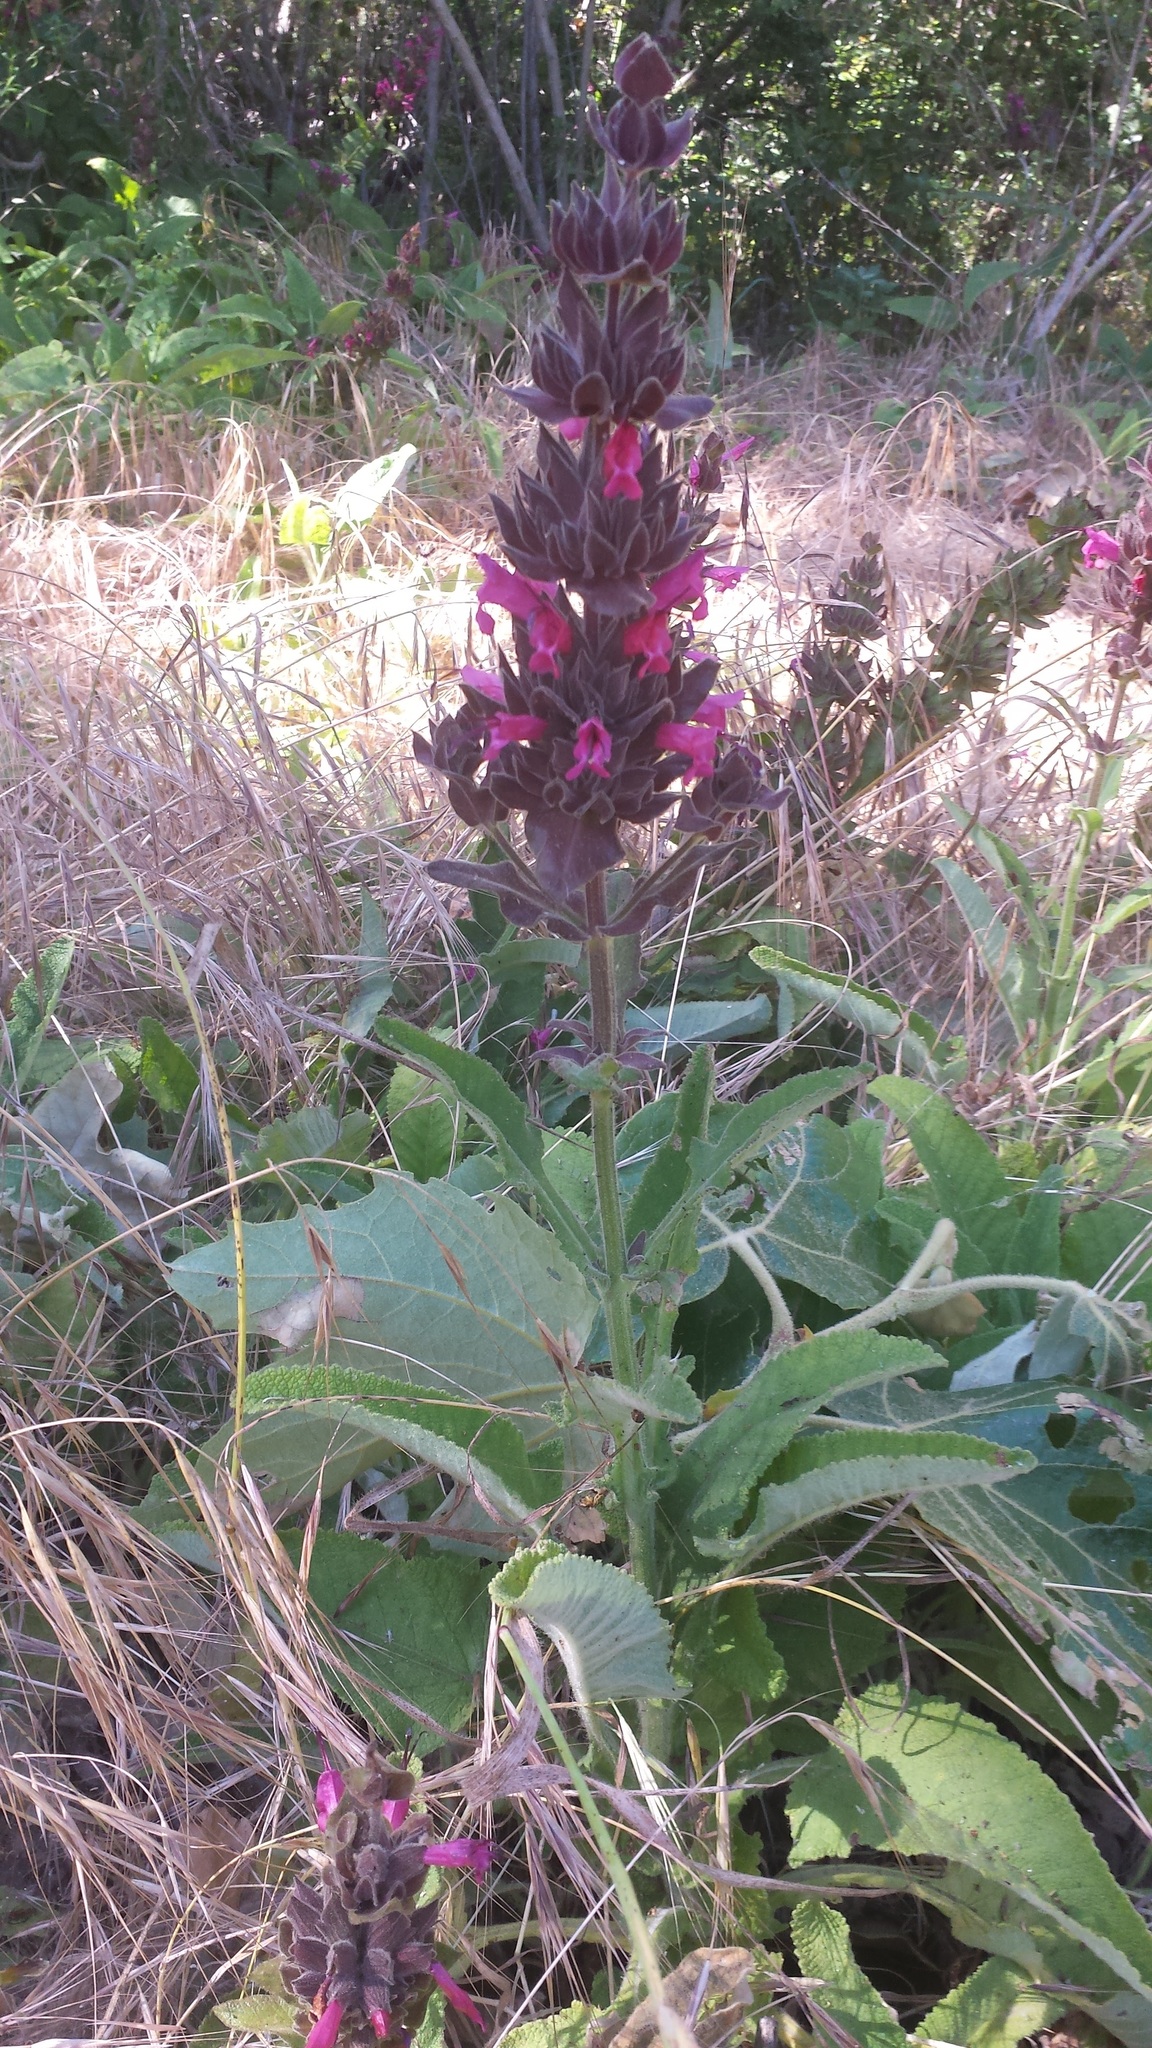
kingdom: Plantae
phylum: Tracheophyta
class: Magnoliopsida
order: Lamiales
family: Lamiaceae
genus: Salvia
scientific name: Salvia spathacea
